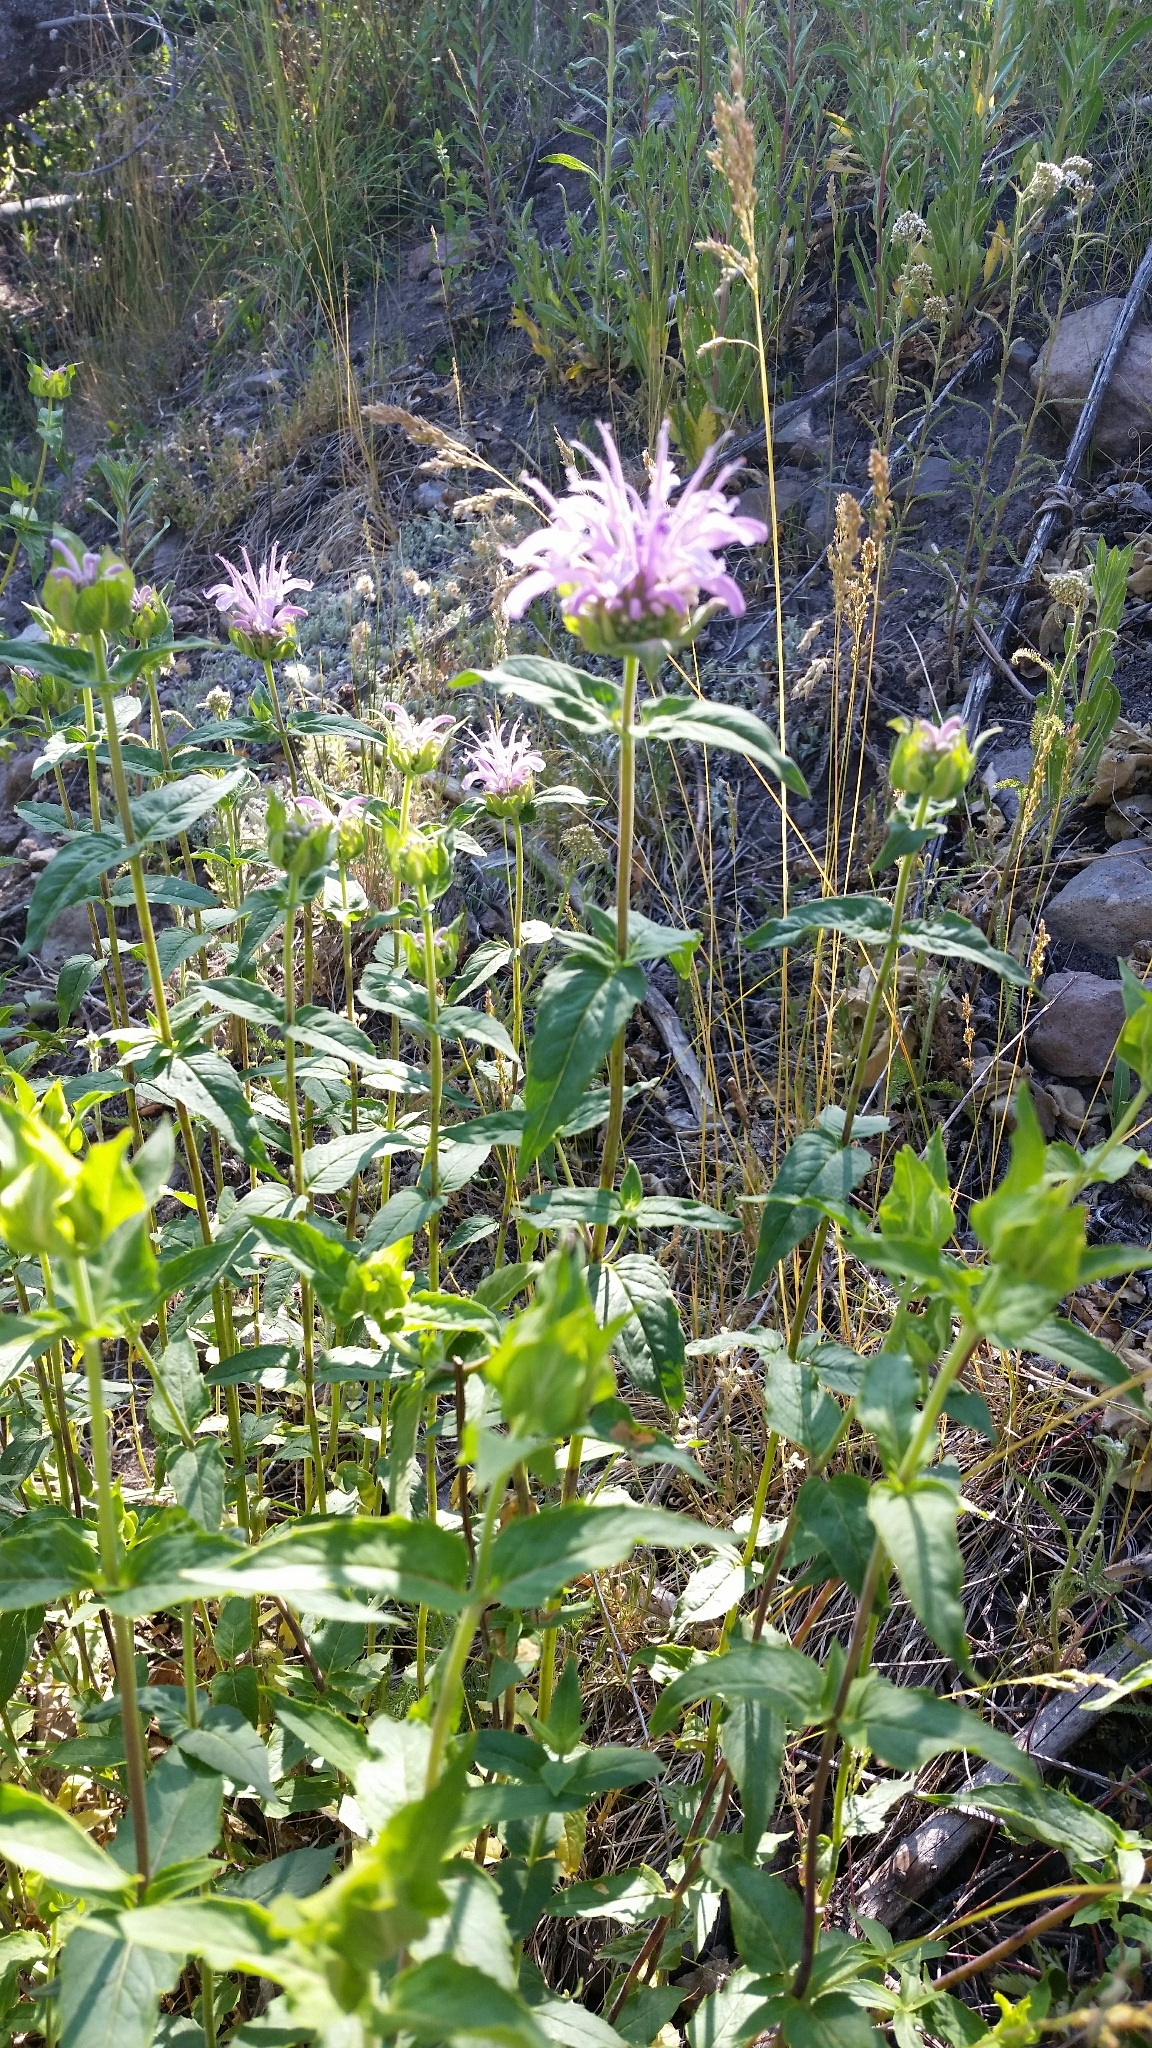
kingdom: Plantae
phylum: Tracheophyta
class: Magnoliopsida
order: Lamiales
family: Lamiaceae
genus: Monarda
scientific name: Monarda fistulosa
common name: Purple beebalm
